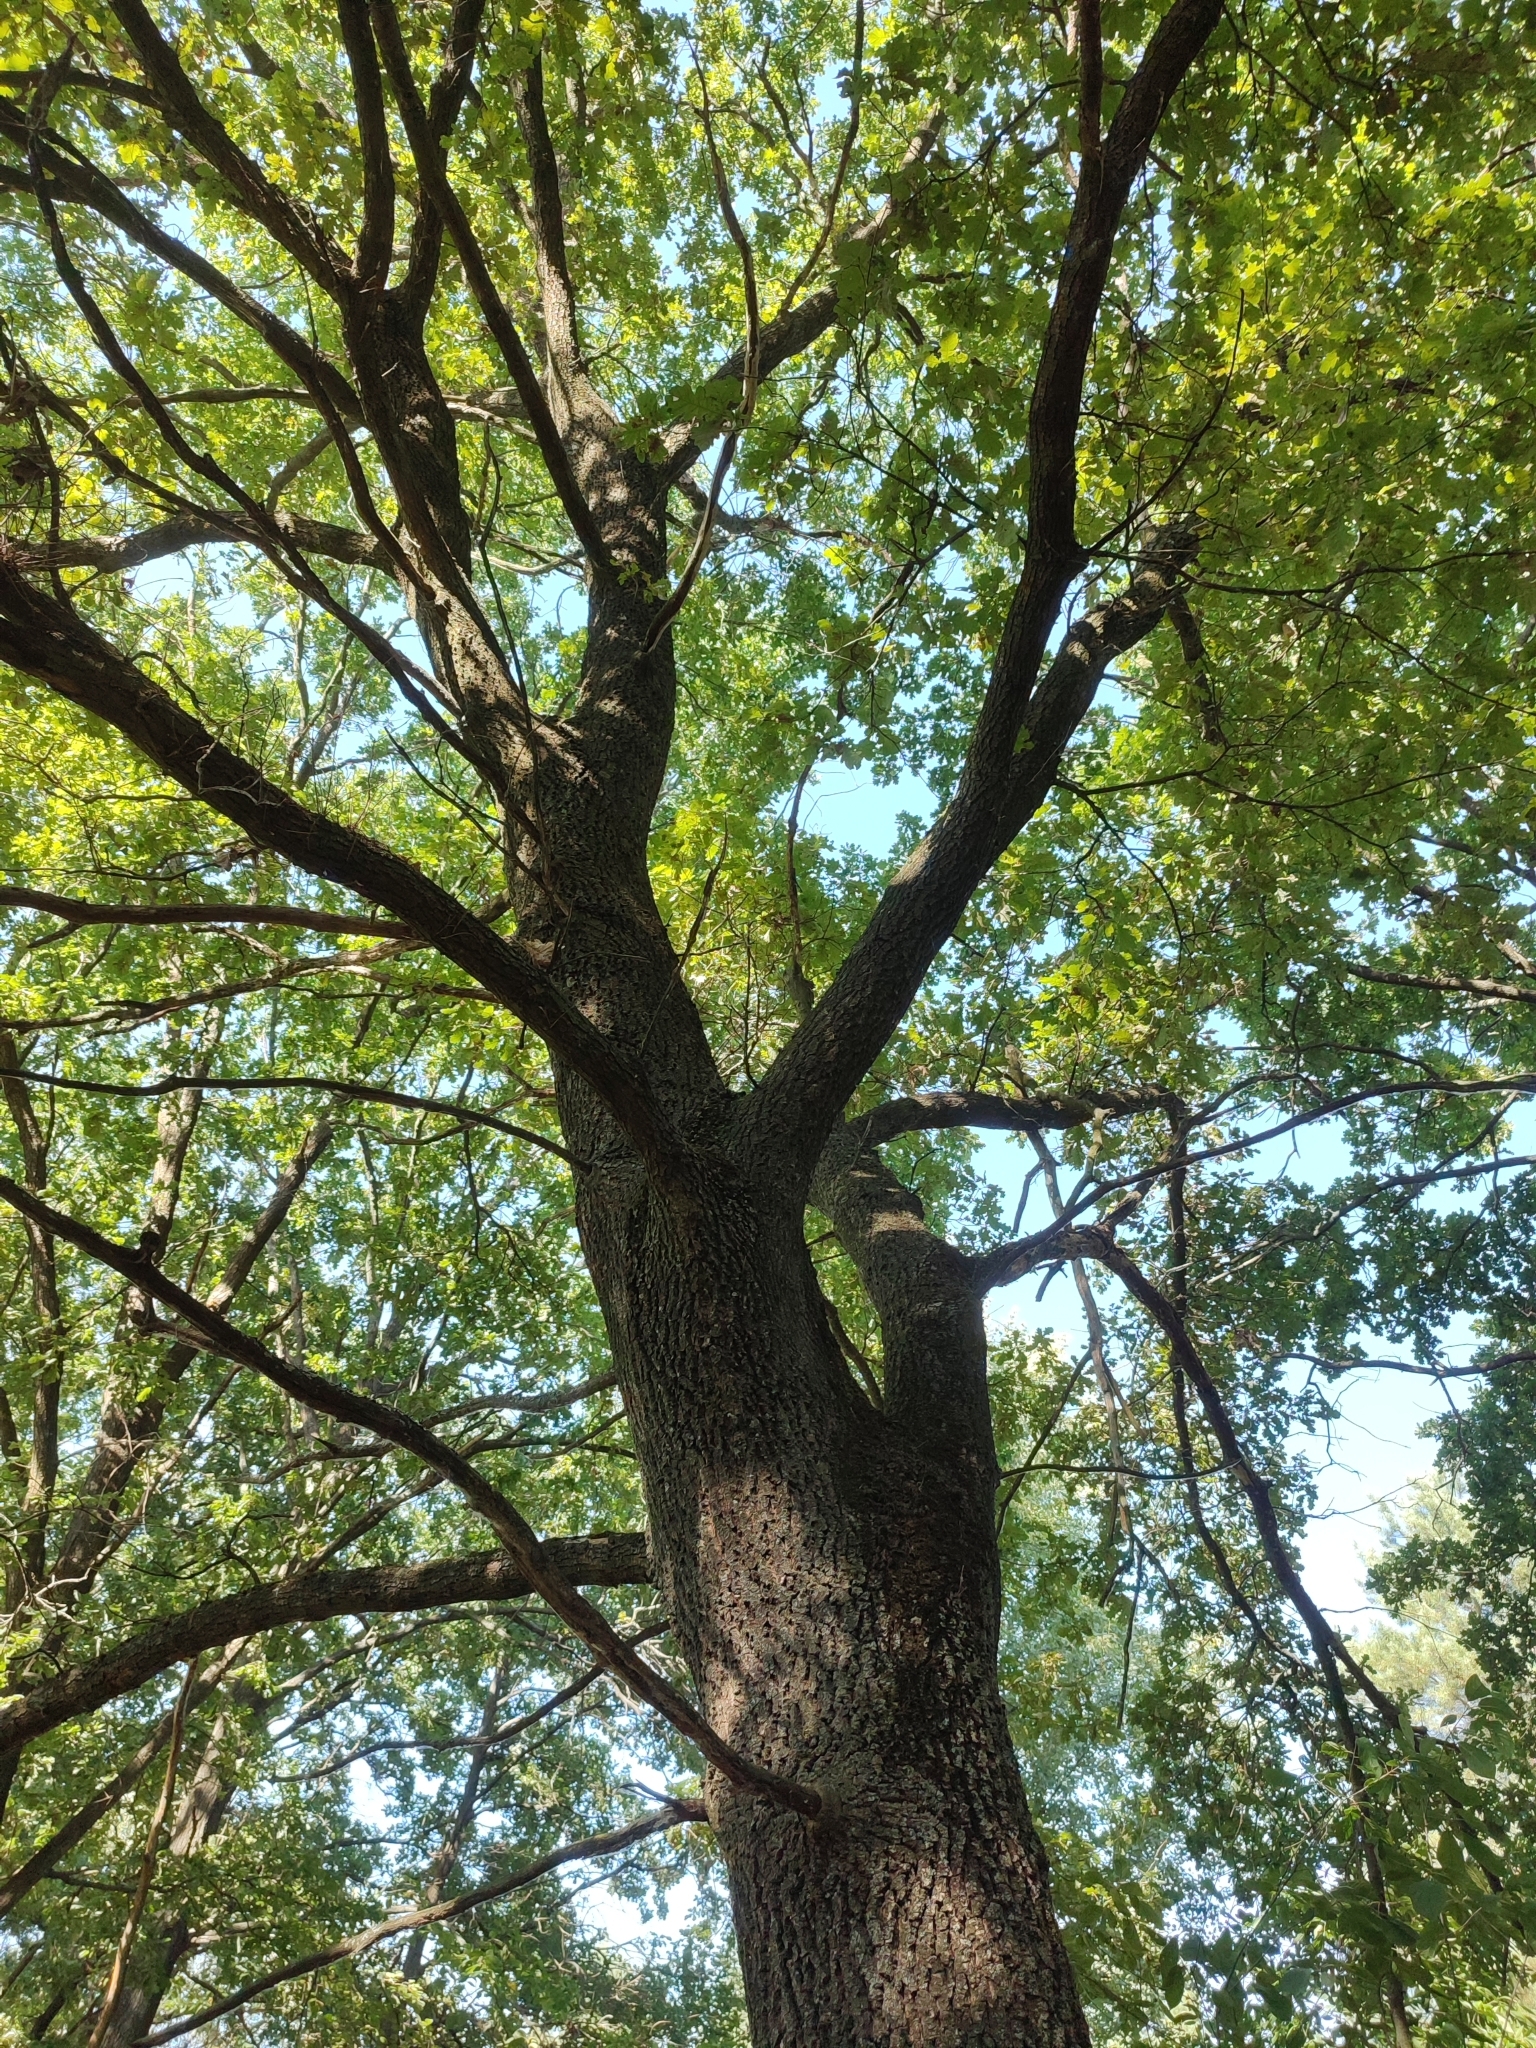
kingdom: Plantae
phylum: Tracheophyta
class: Magnoliopsida
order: Fagales
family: Fagaceae
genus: Quercus
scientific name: Quercus robur
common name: Pedunculate oak
